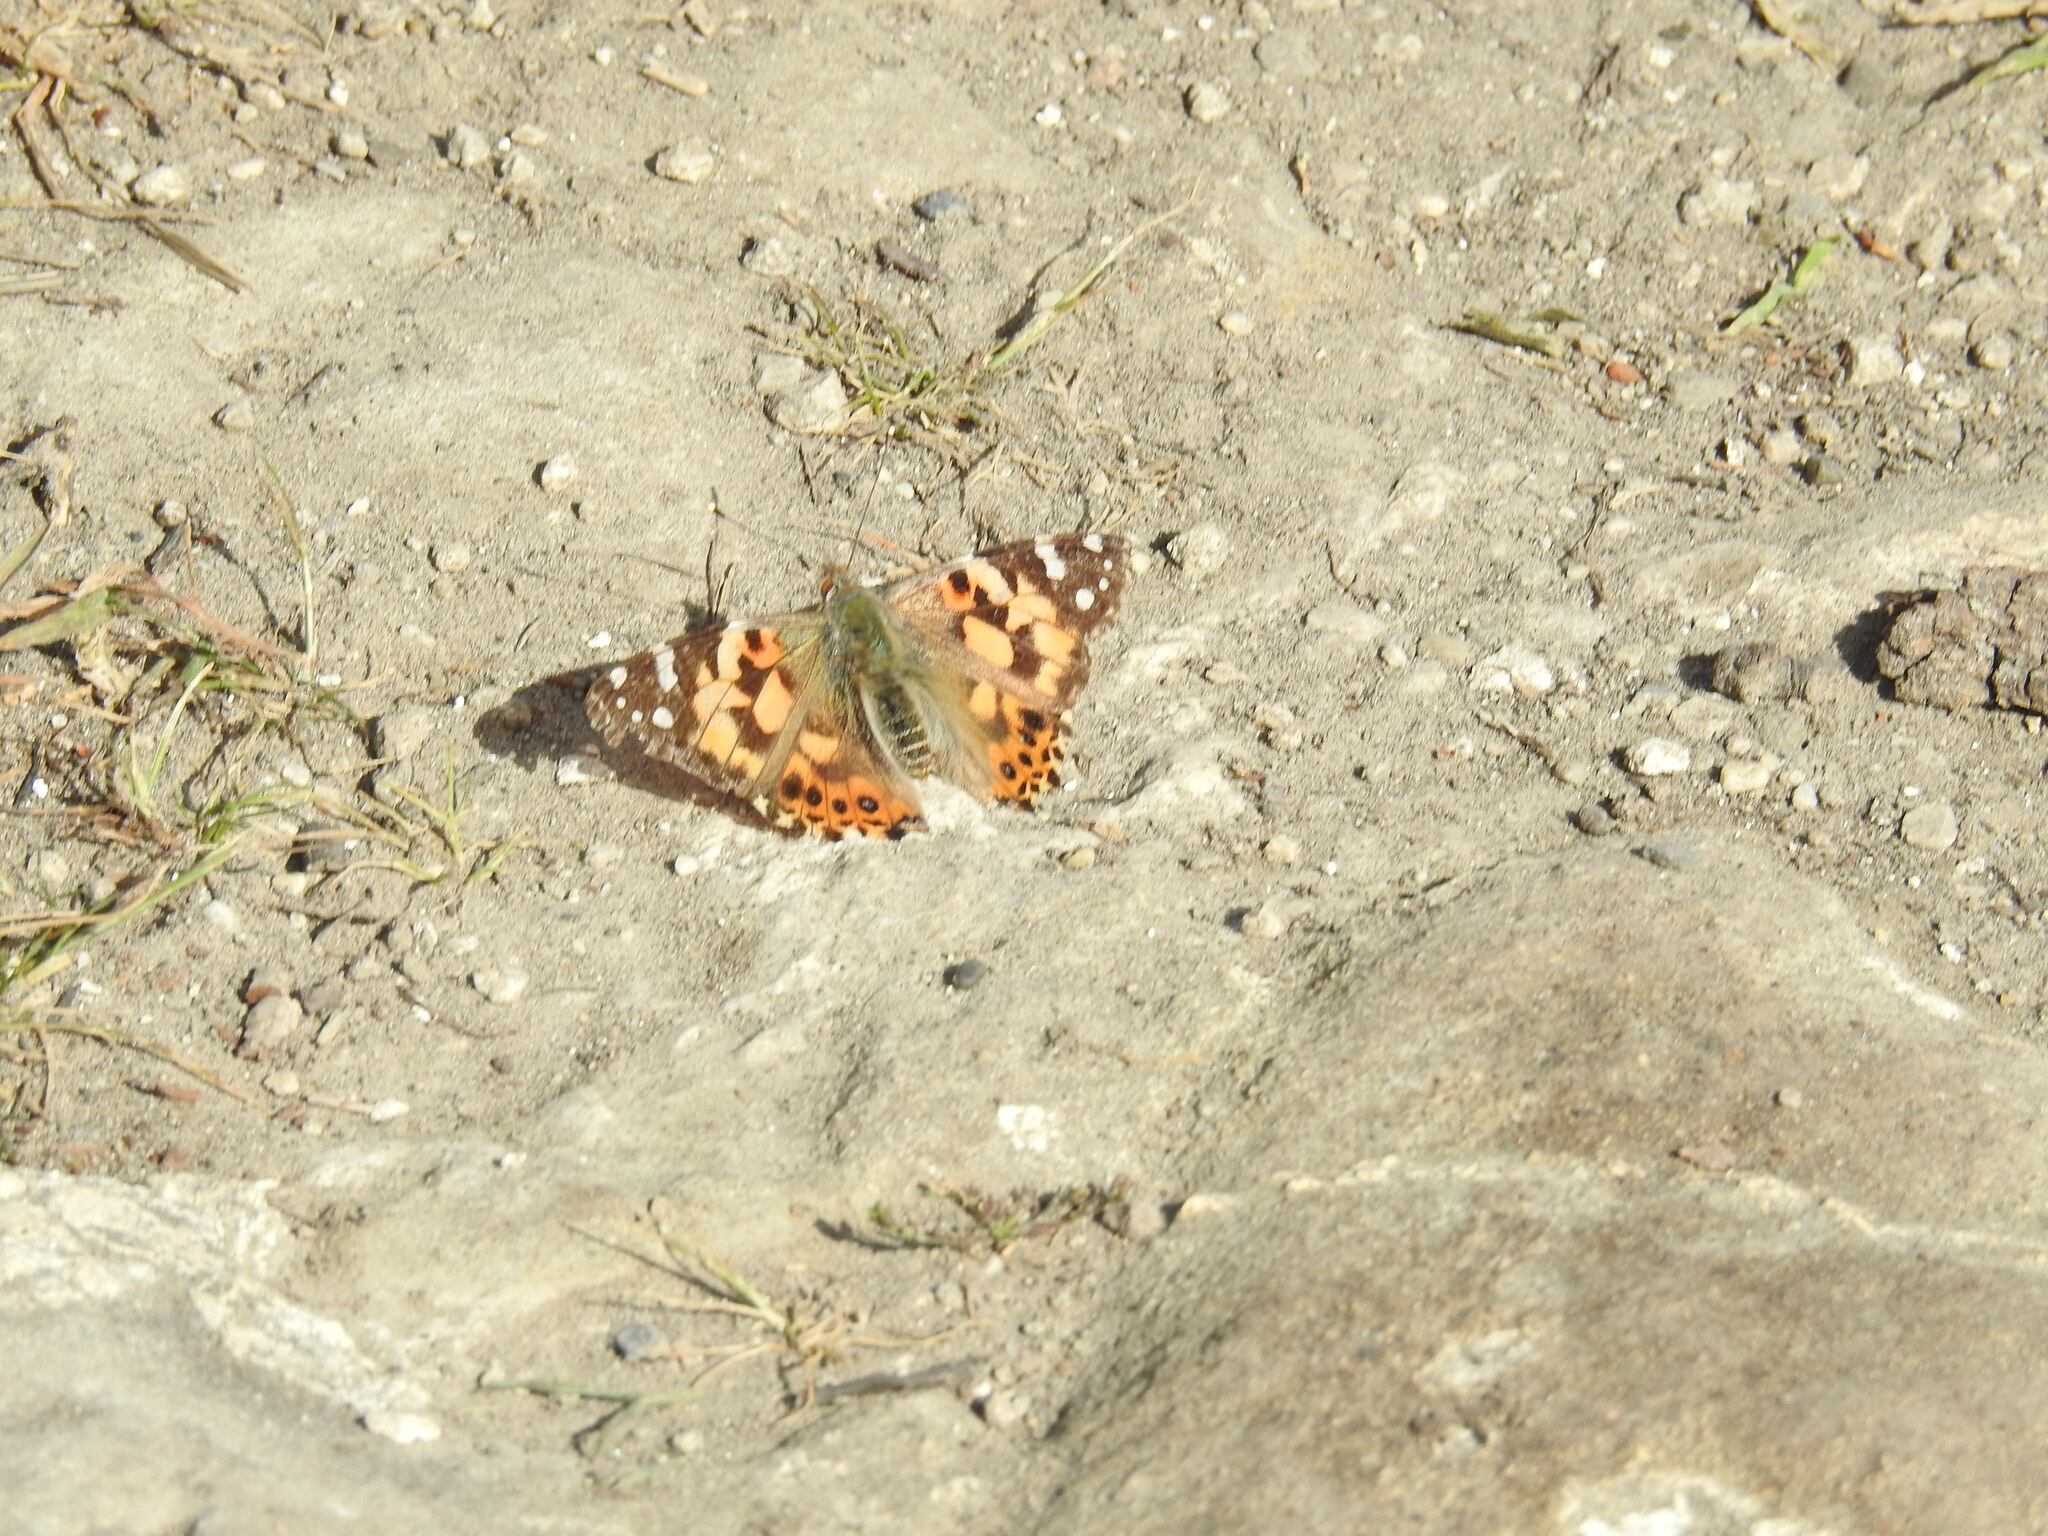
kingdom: Animalia
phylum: Arthropoda
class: Insecta
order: Lepidoptera
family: Nymphalidae
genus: Vanessa
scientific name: Vanessa cardui
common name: Painted lady
